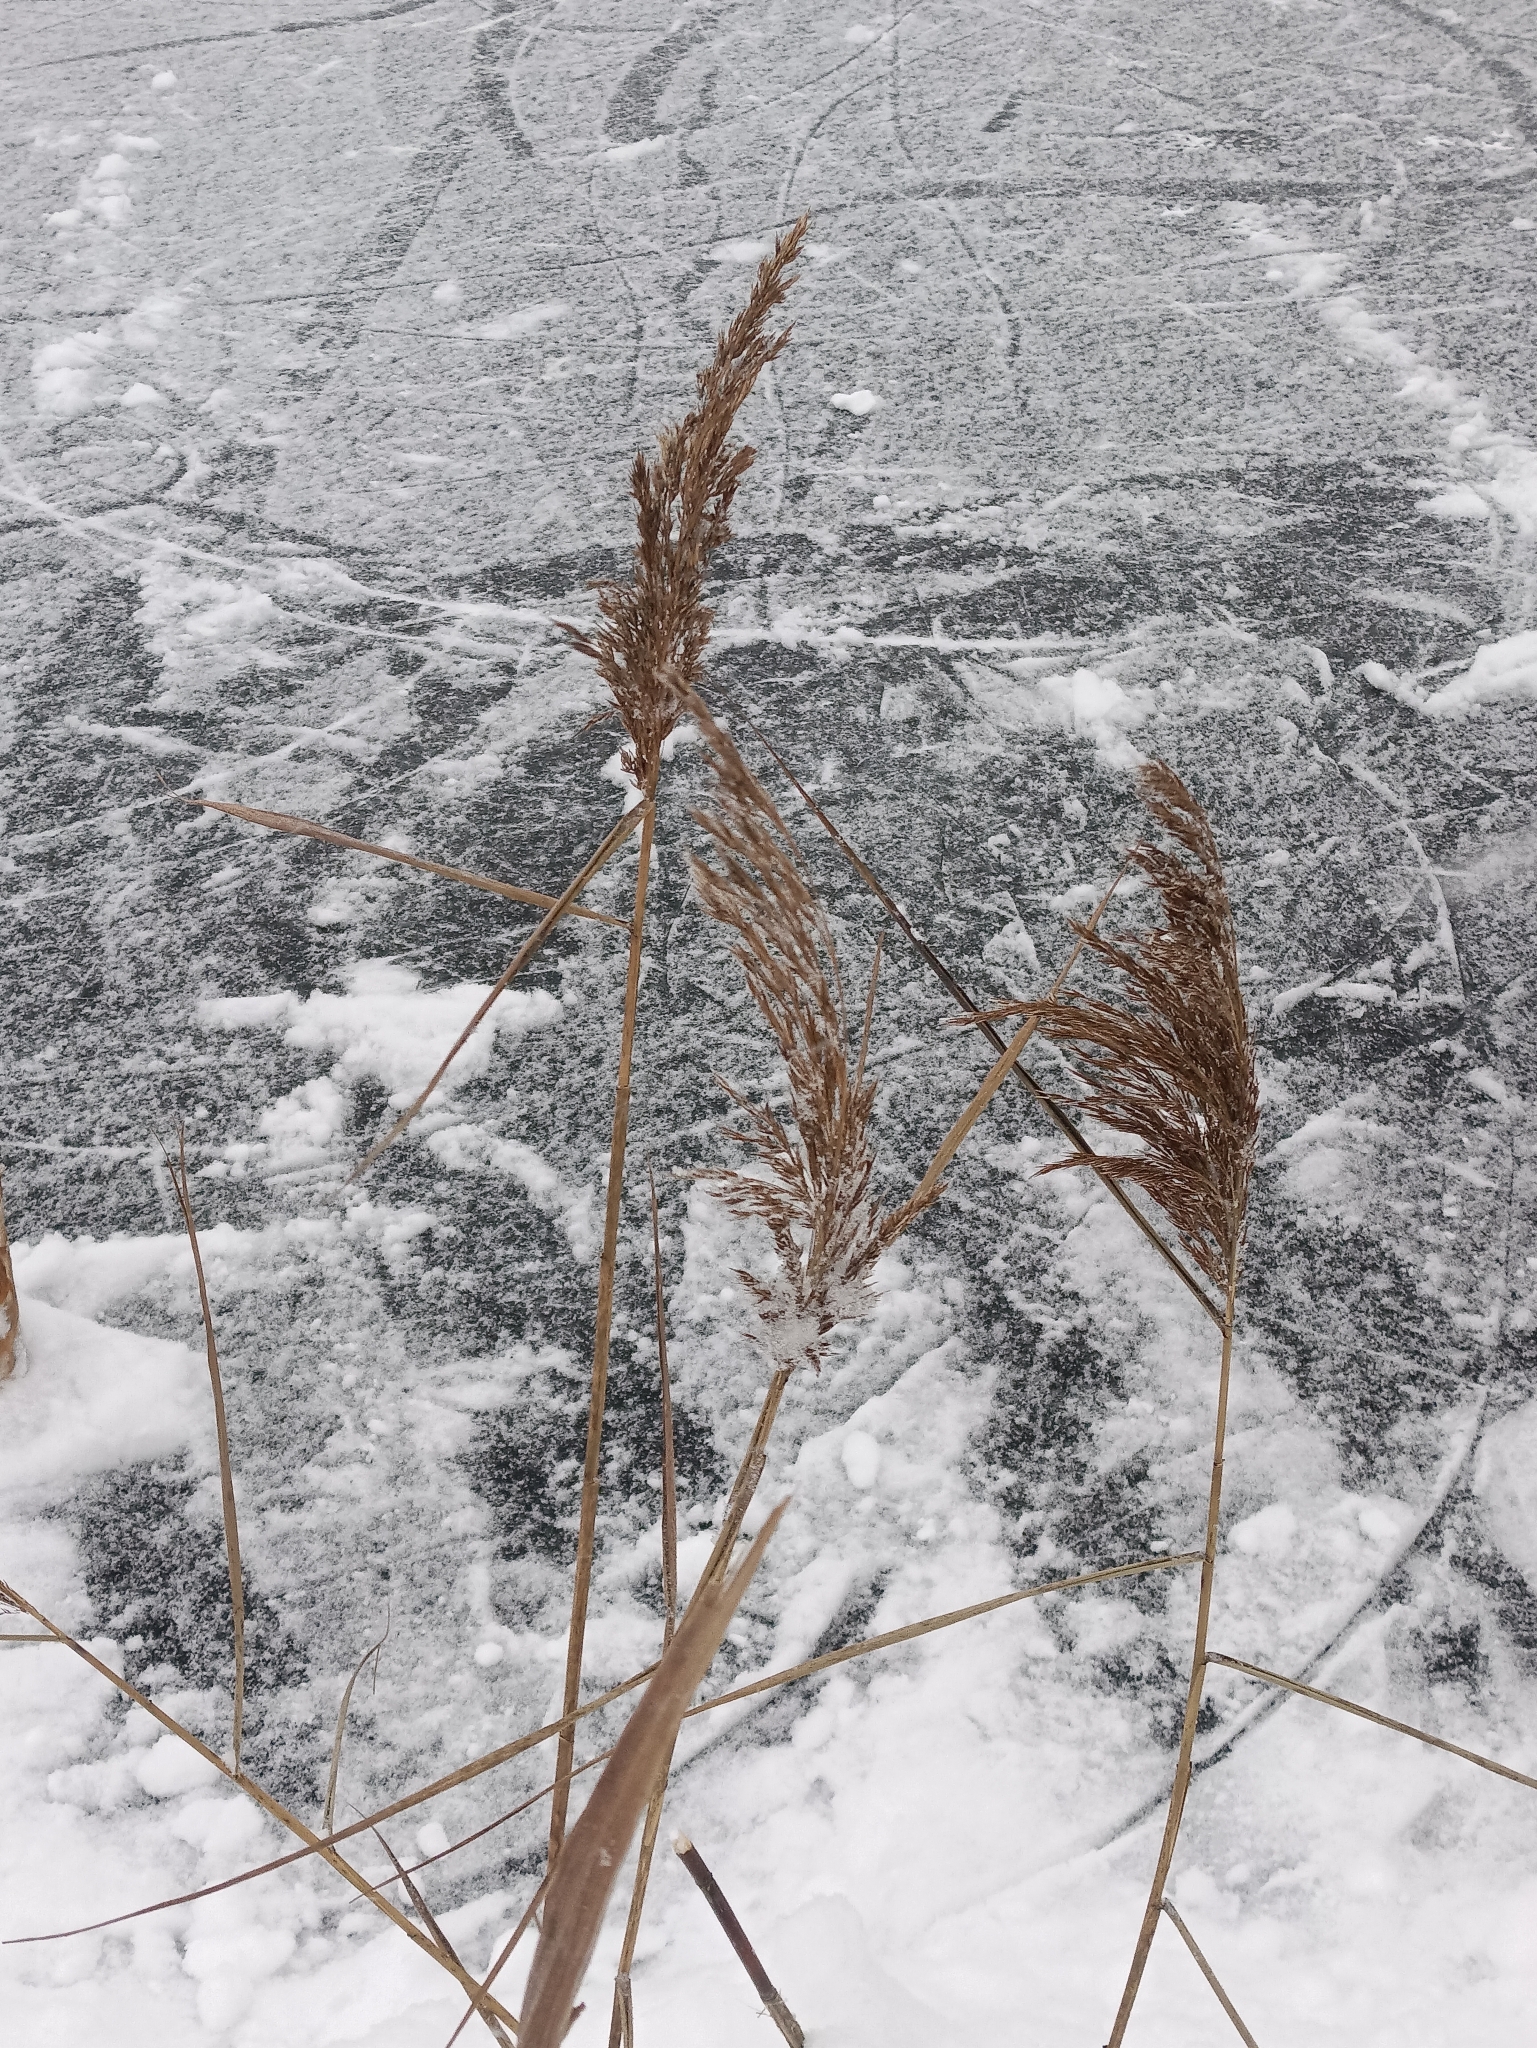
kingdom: Plantae
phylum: Tracheophyta
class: Liliopsida
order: Poales
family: Poaceae
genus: Phragmites
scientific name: Phragmites australis
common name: Common reed
